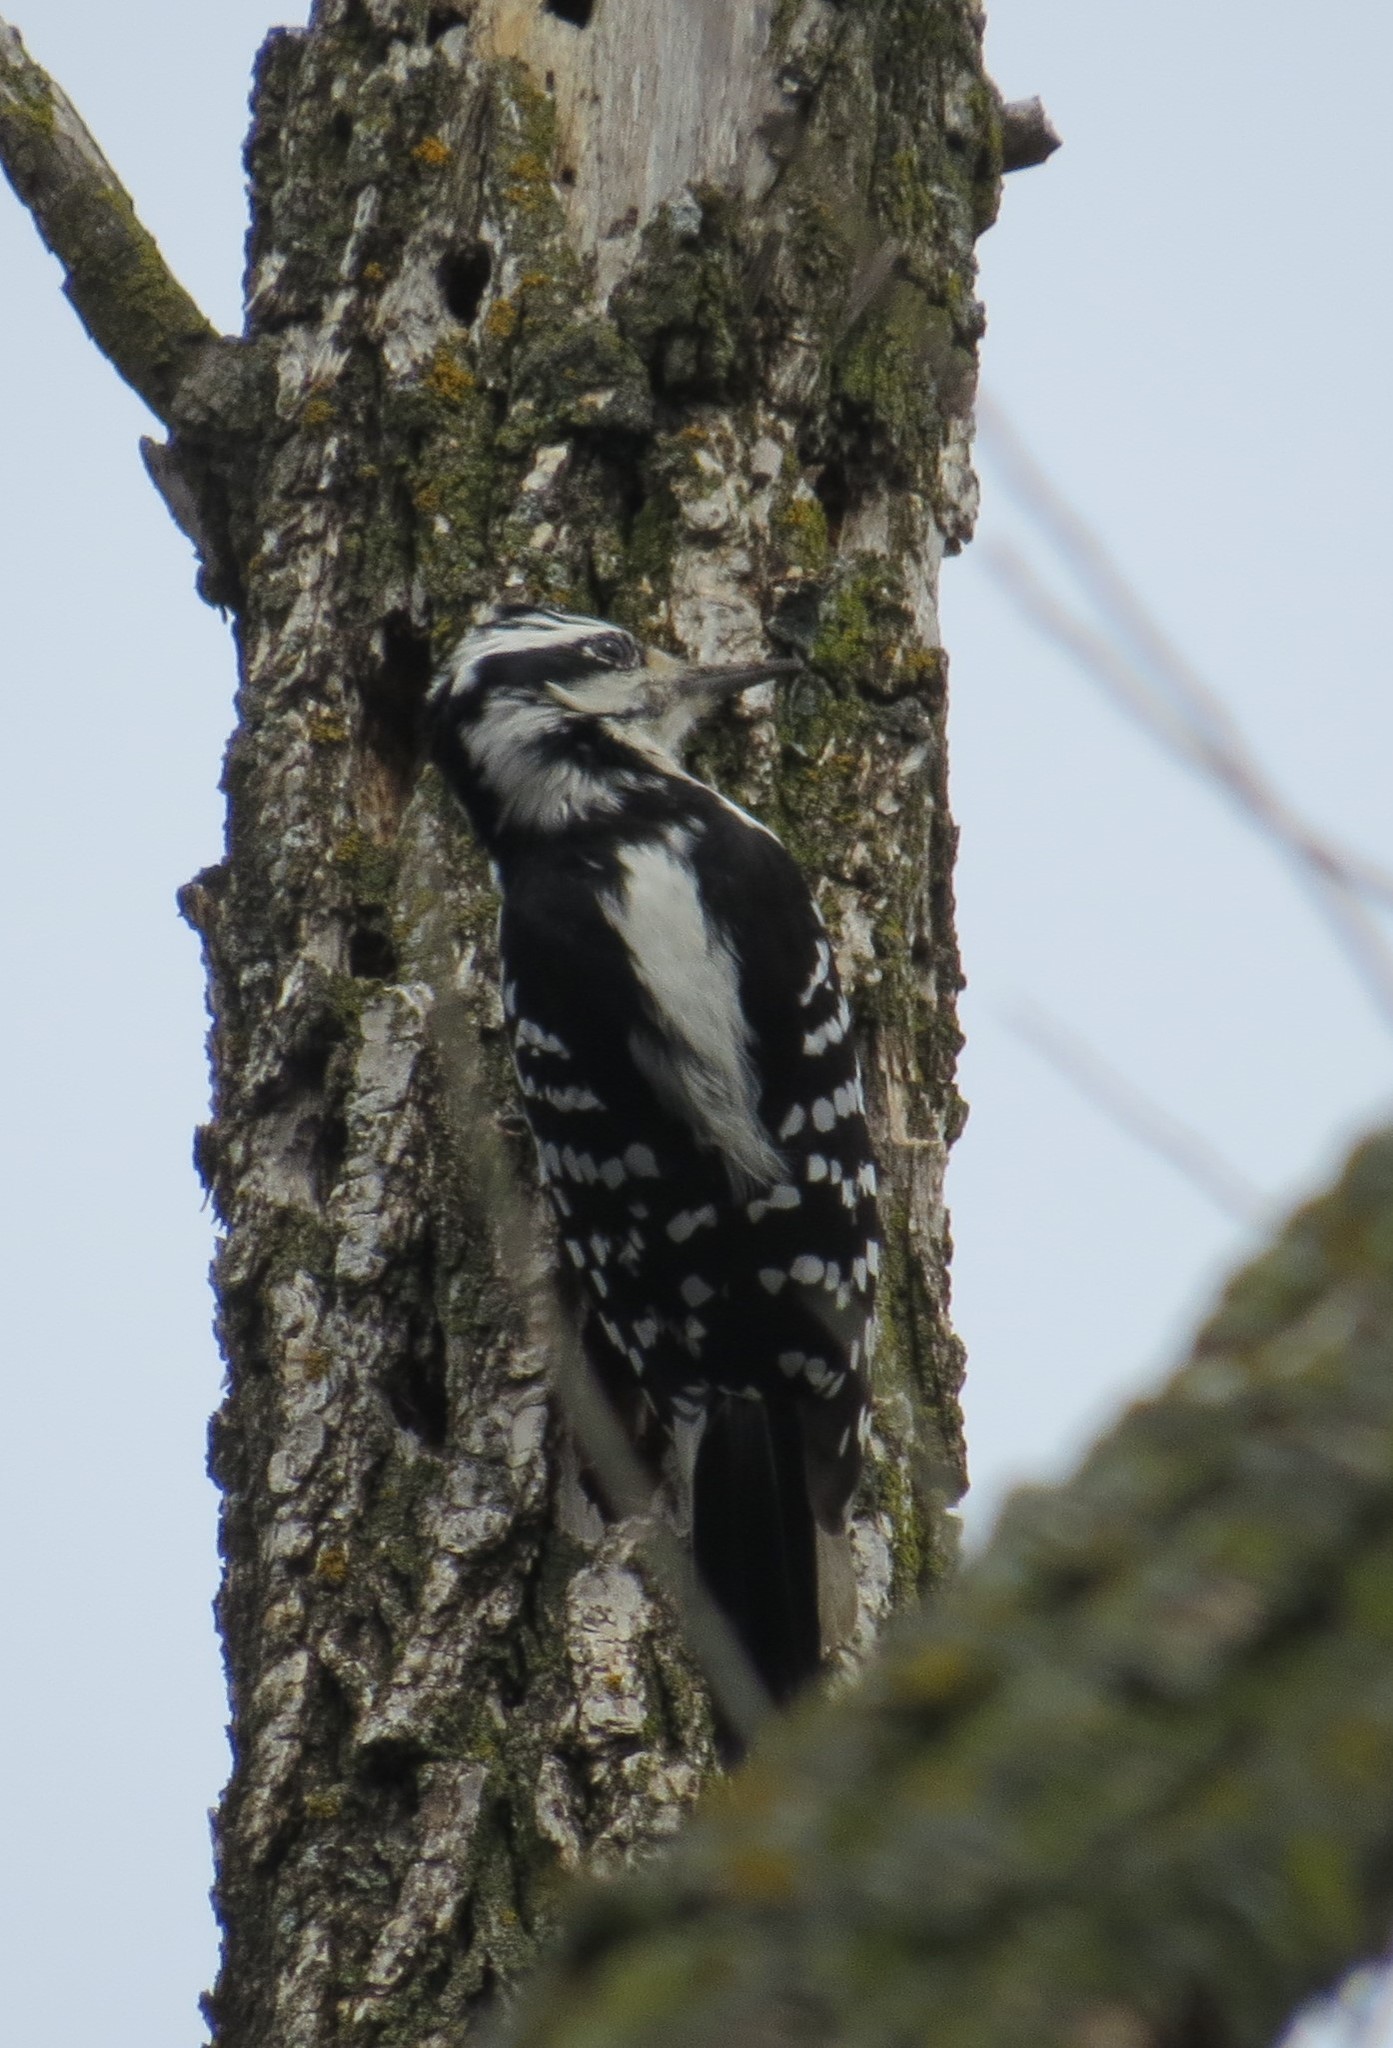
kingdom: Animalia
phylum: Chordata
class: Aves
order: Piciformes
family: Picidae
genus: Leuconotopicus
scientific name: Leuconotopicus villosus
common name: Hairy woodpecker
